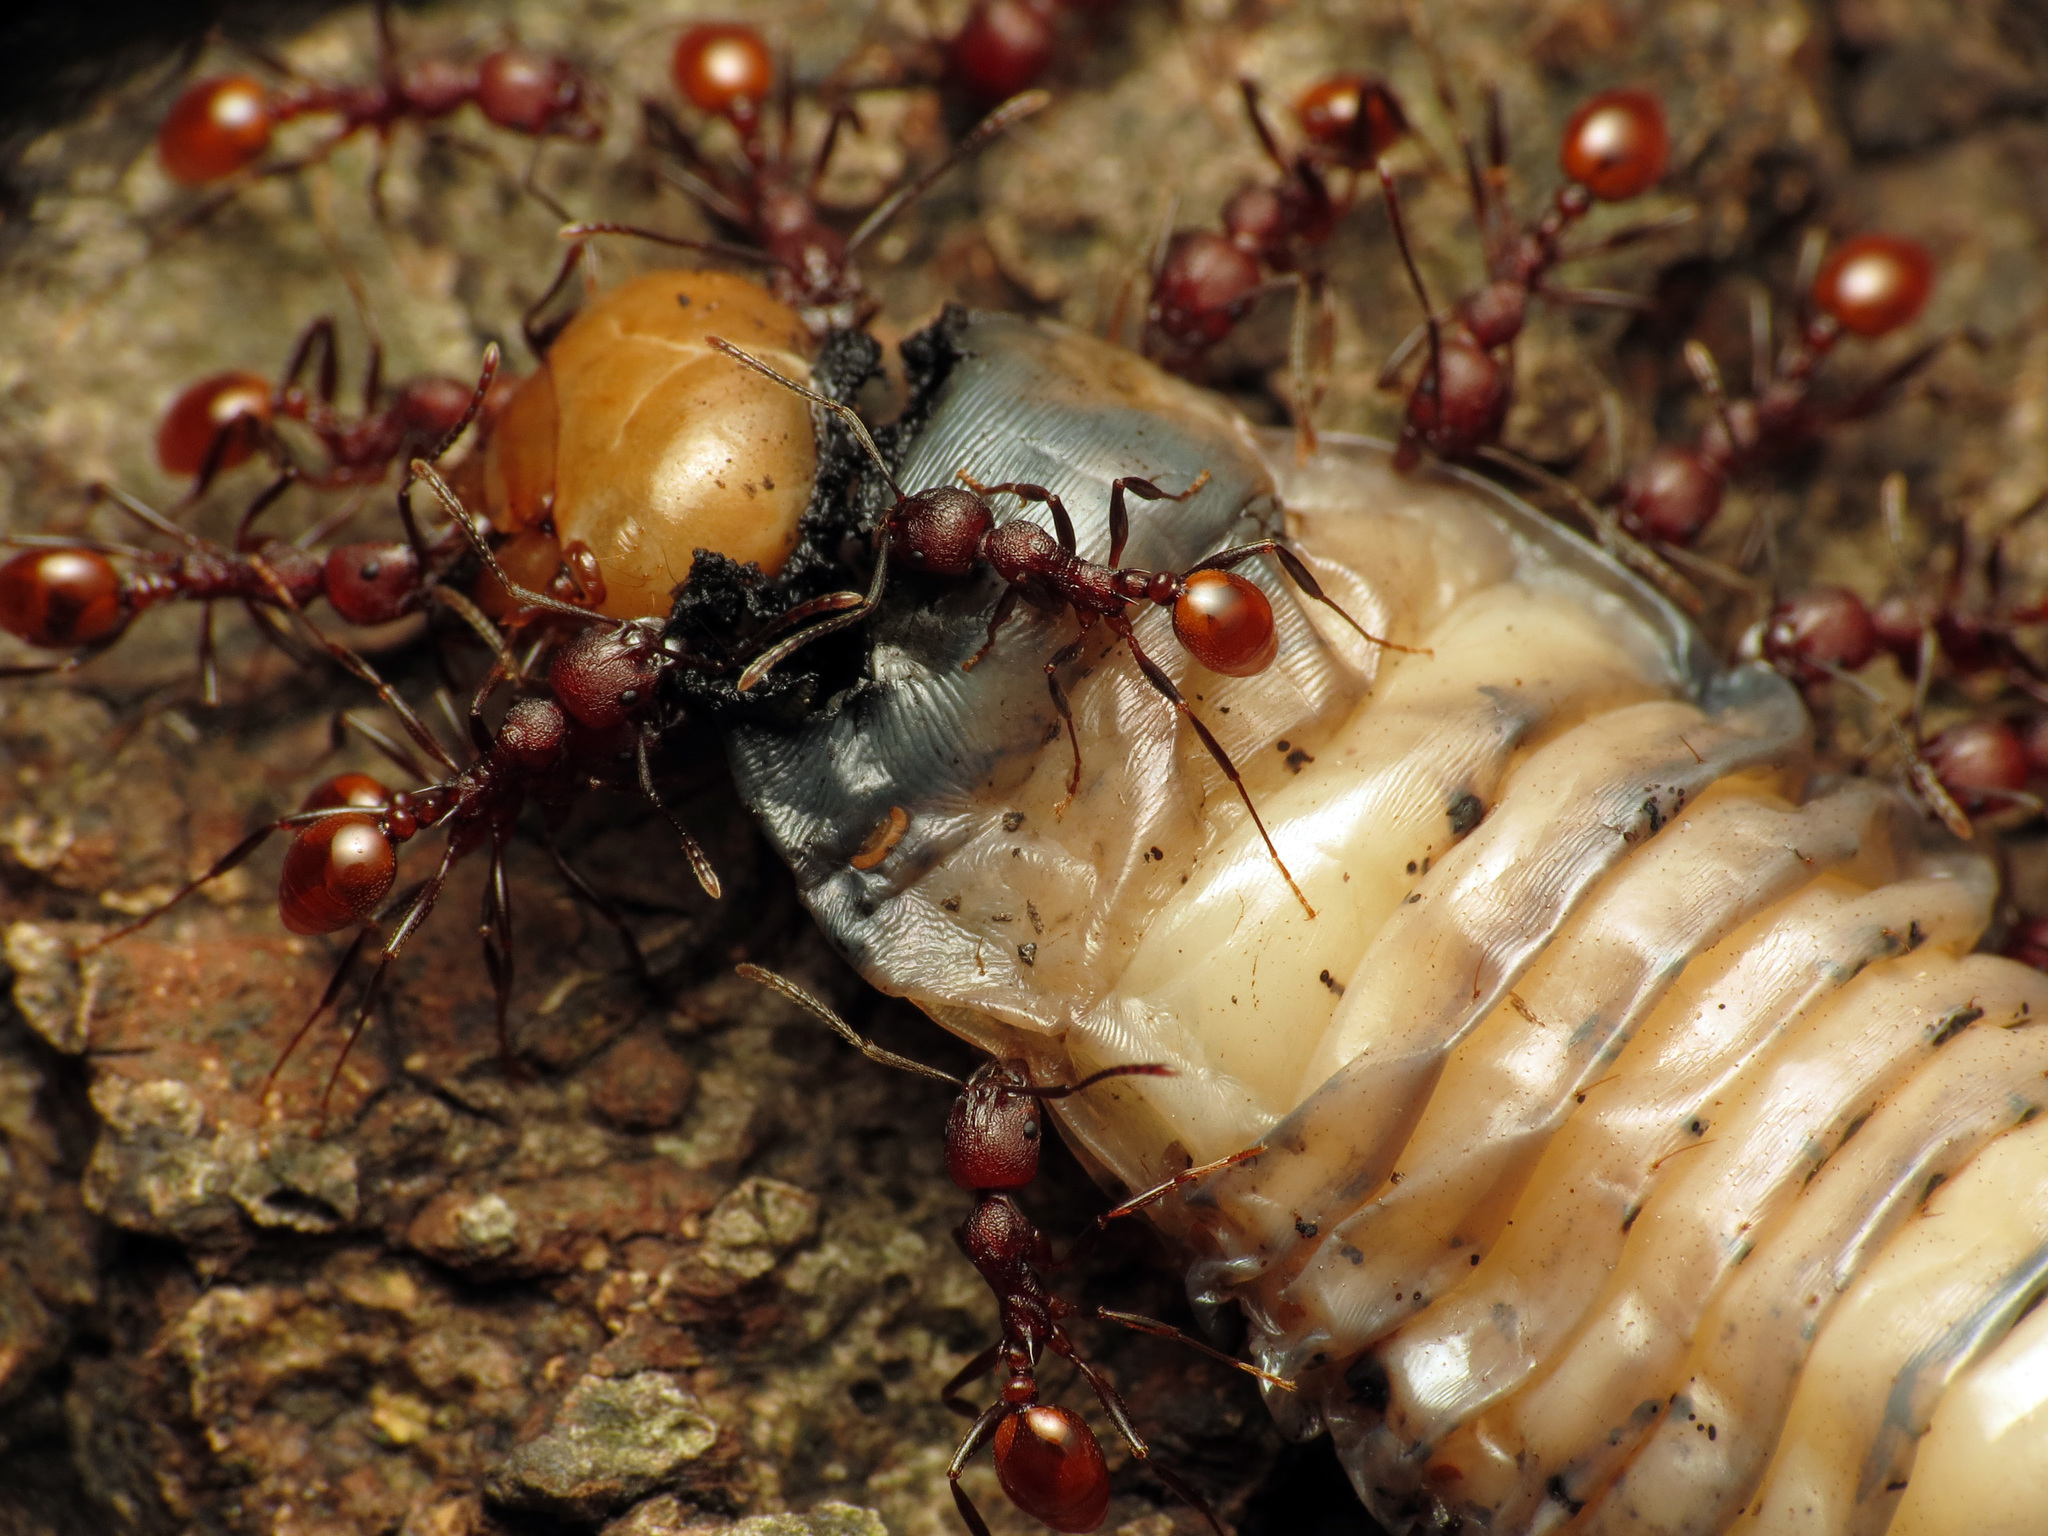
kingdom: Animalia
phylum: Arthropoda
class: Insecta
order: Hymenoptera
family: Formicidae
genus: Aphaenogaster
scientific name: Aphaenogaster tennesseensis
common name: Tennessee thread-waisted ant
